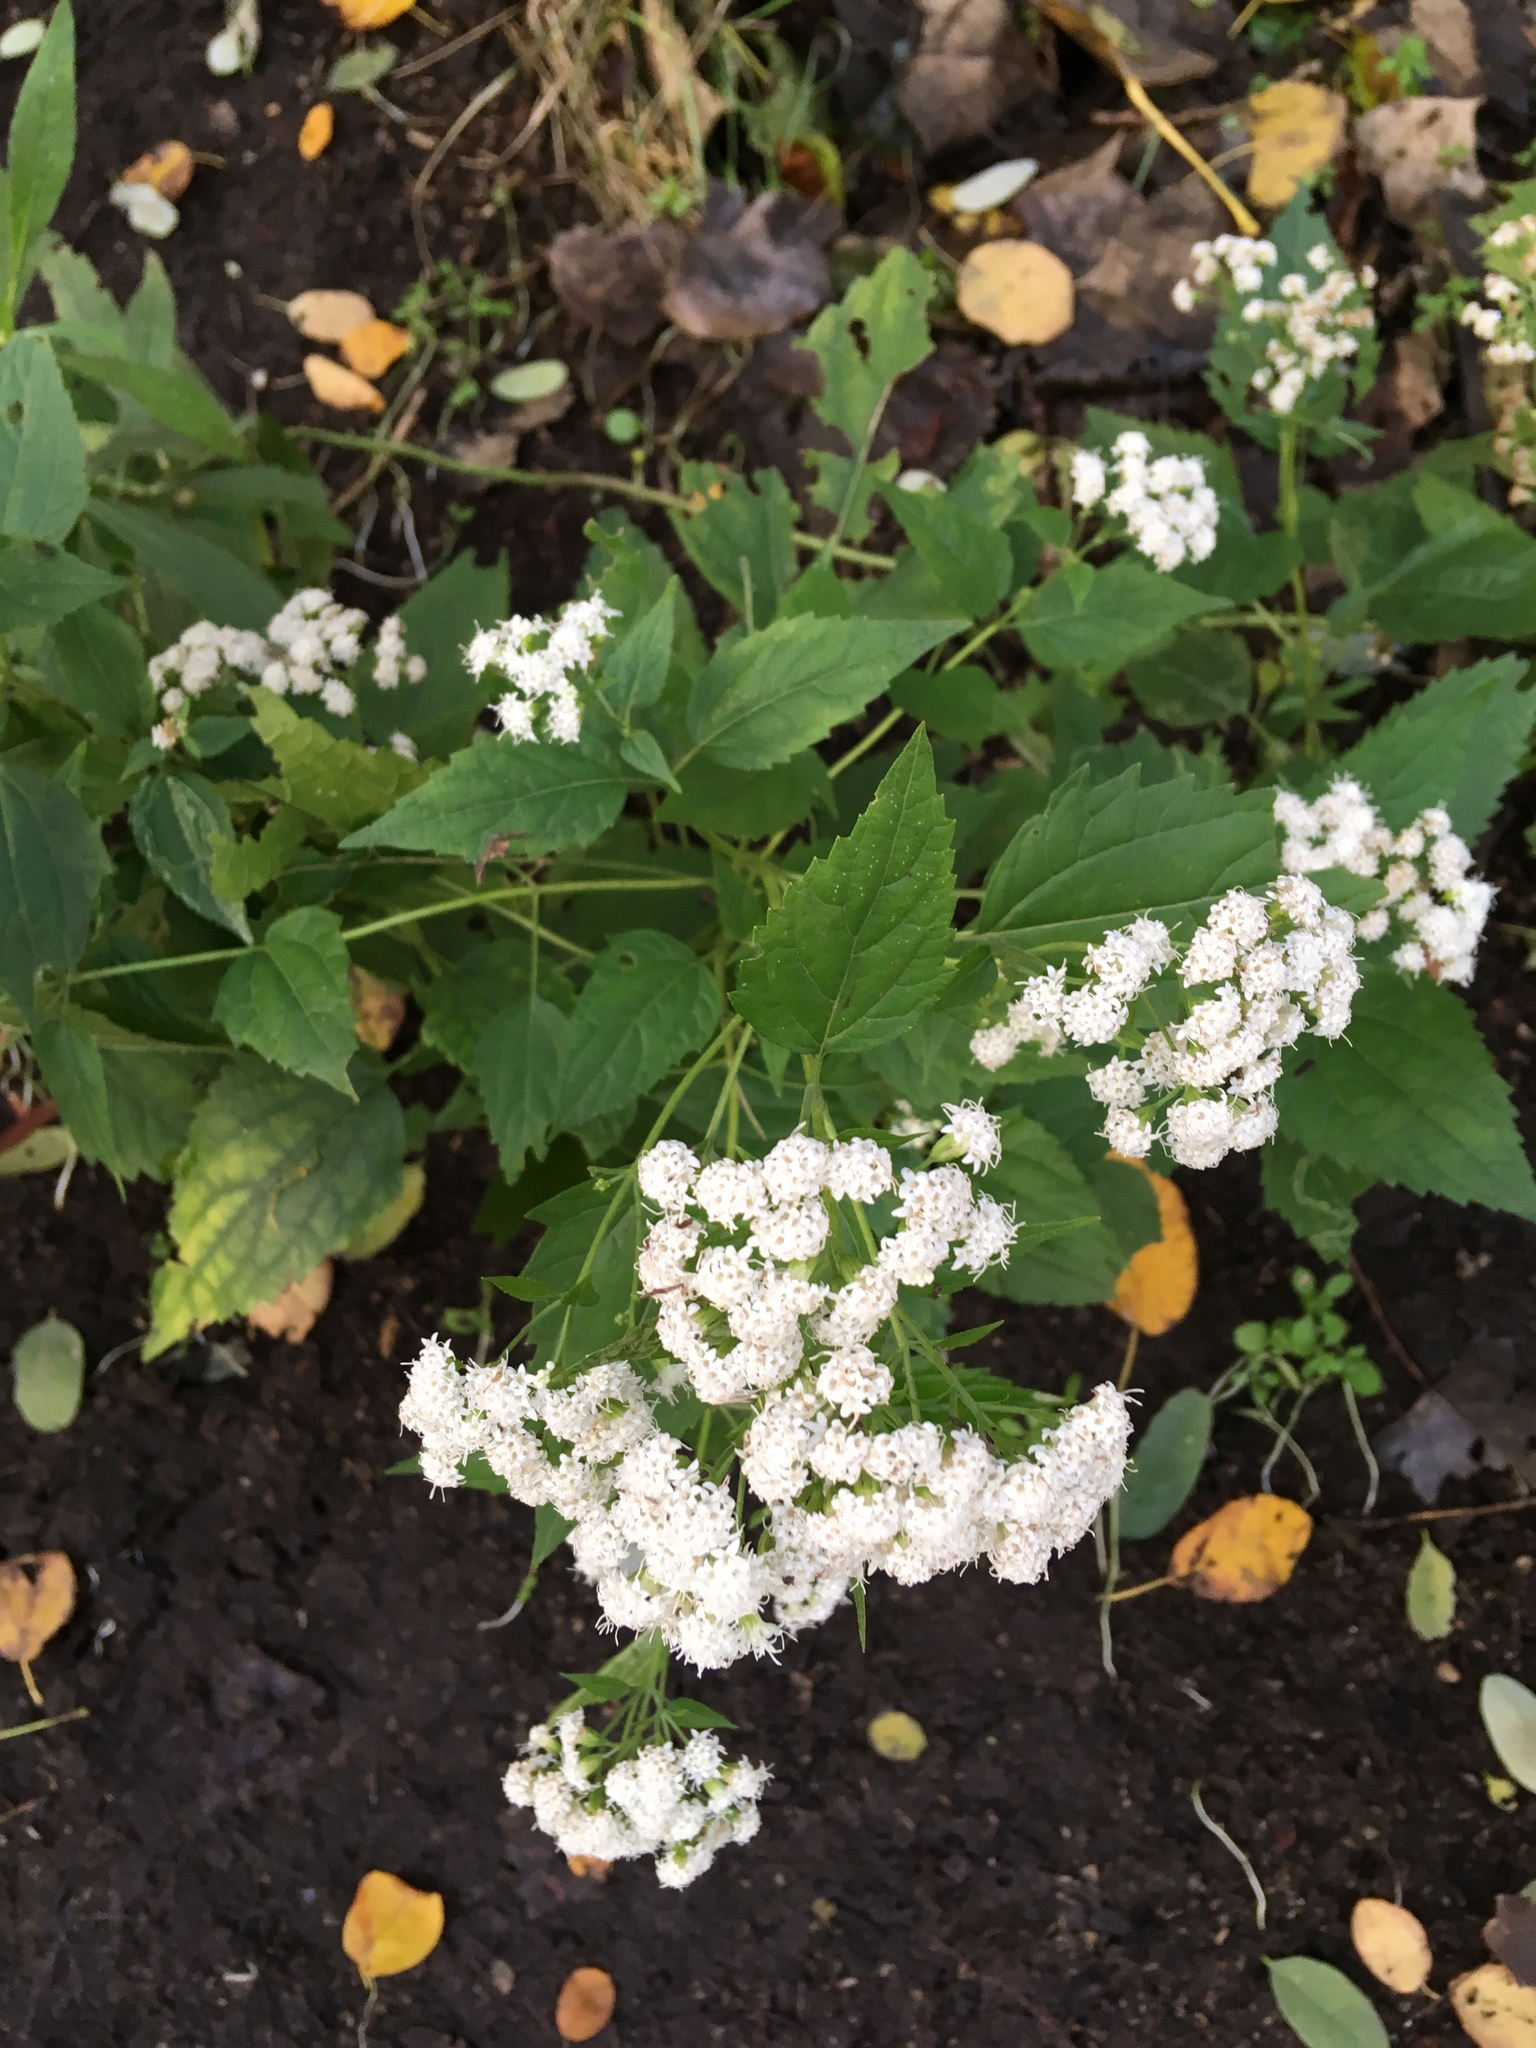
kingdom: Plantae
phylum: Tracheophyta
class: Magnoliopsida
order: Asterales
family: Asteraceae
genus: Ageratina
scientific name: Ageratina altissima
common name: White snakeroot
